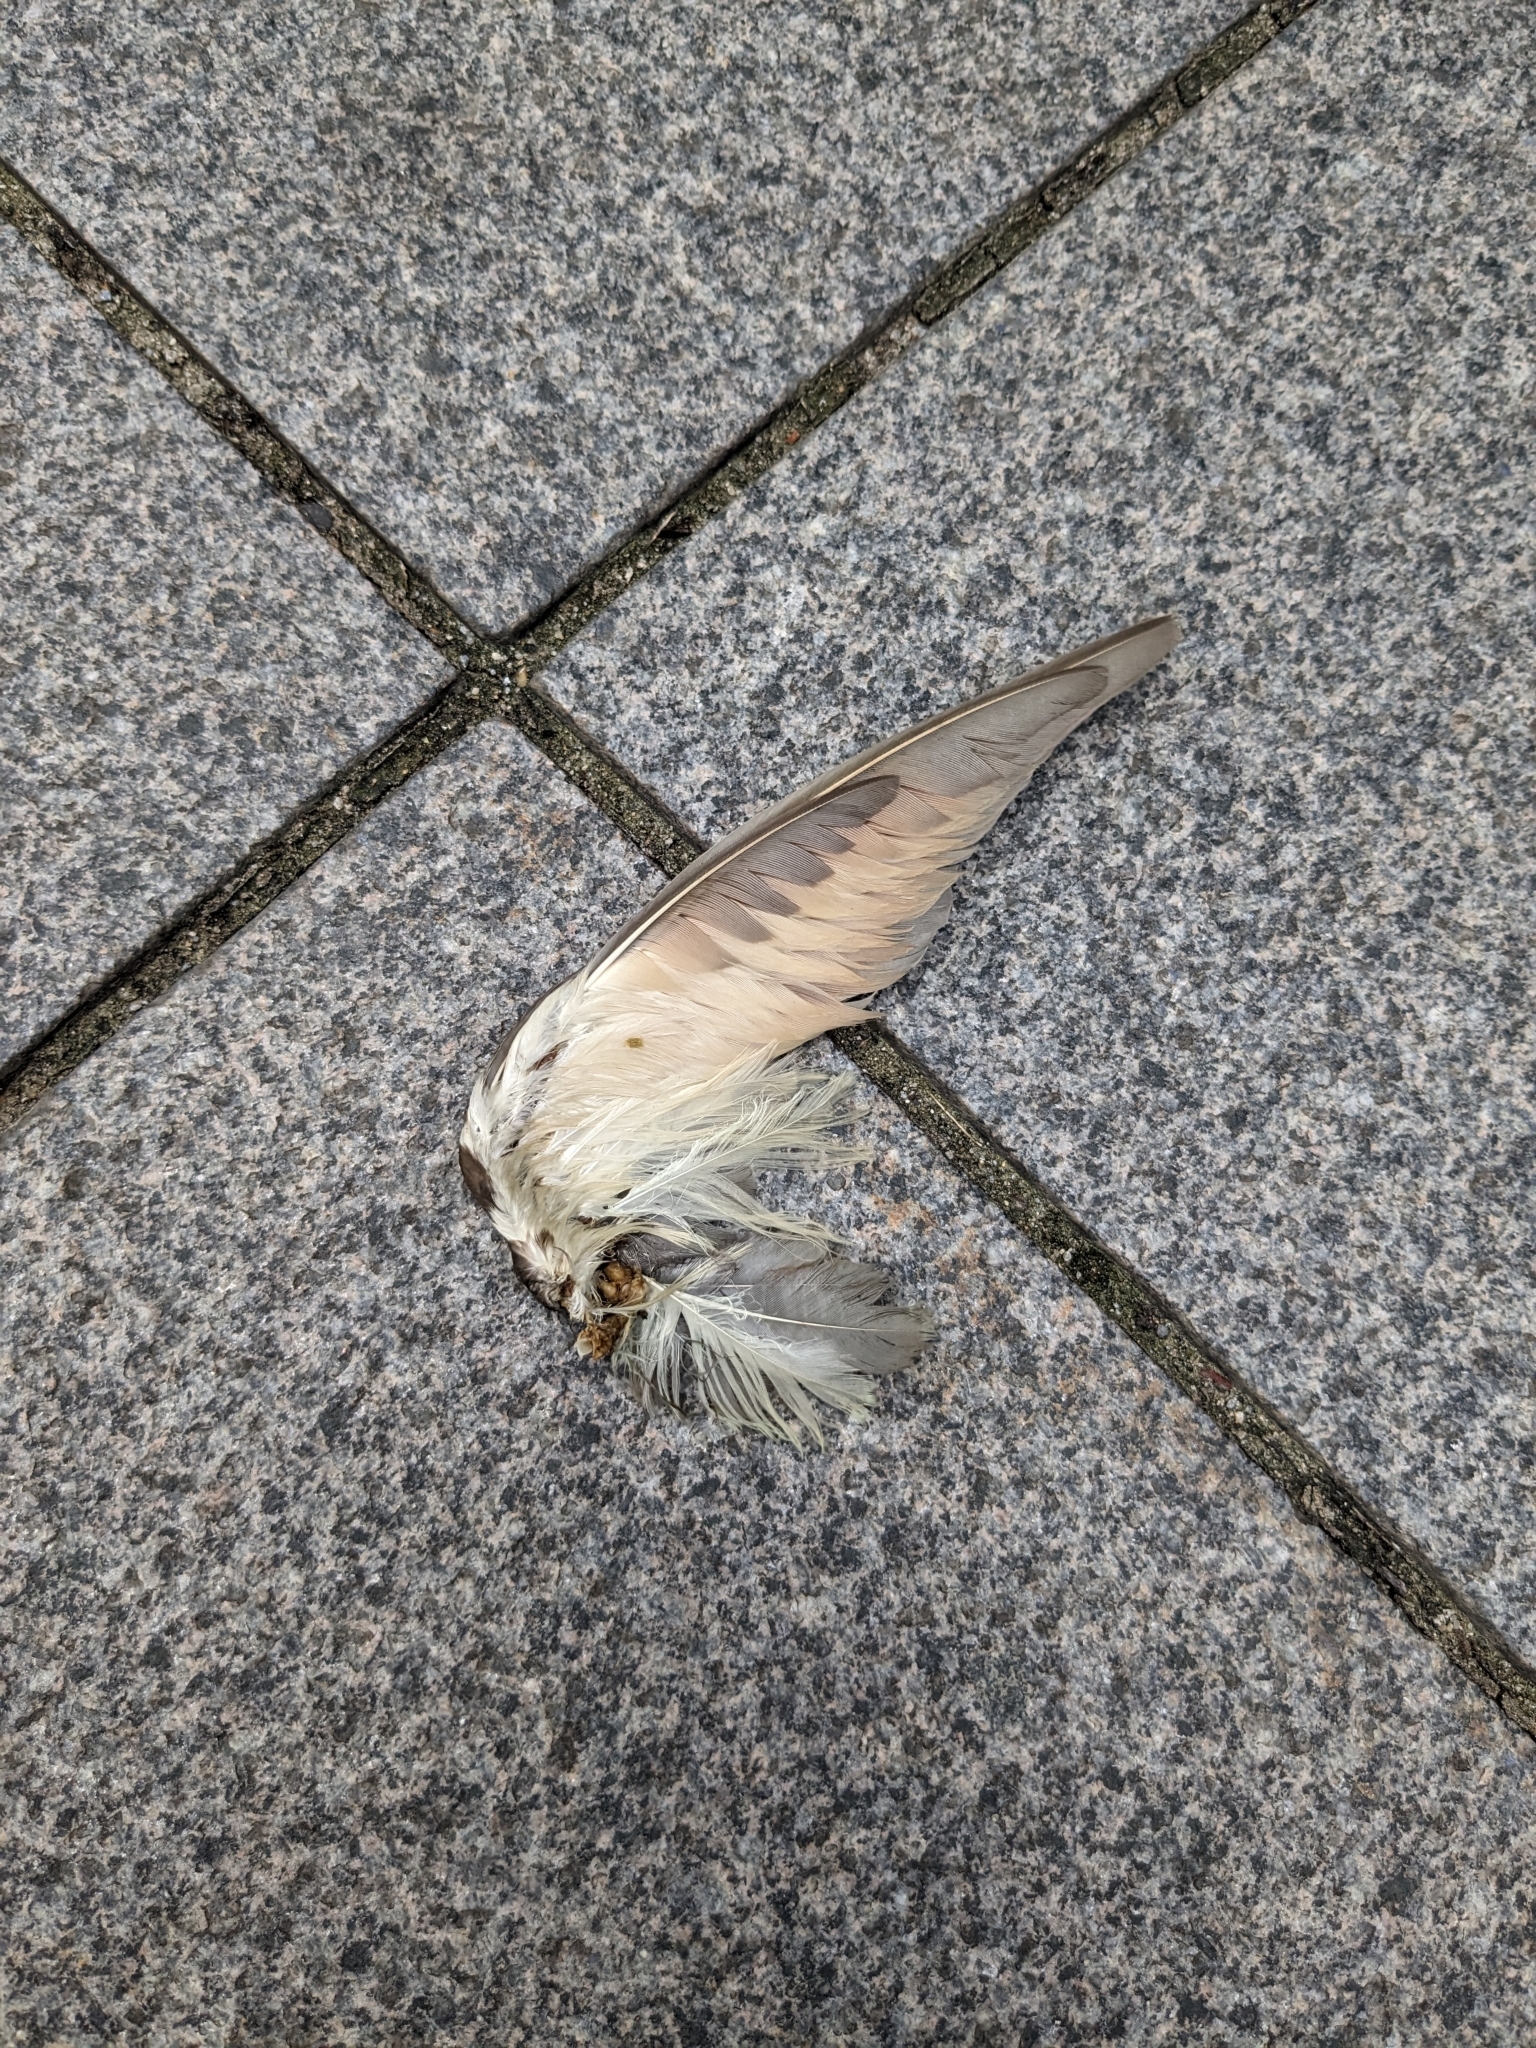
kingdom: Animalia
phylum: Chordata
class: Aves
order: Cuculiformes
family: Cuculidae
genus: Coccyzus
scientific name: Coccyzus americanus
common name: Yellow-billed cuckoo
